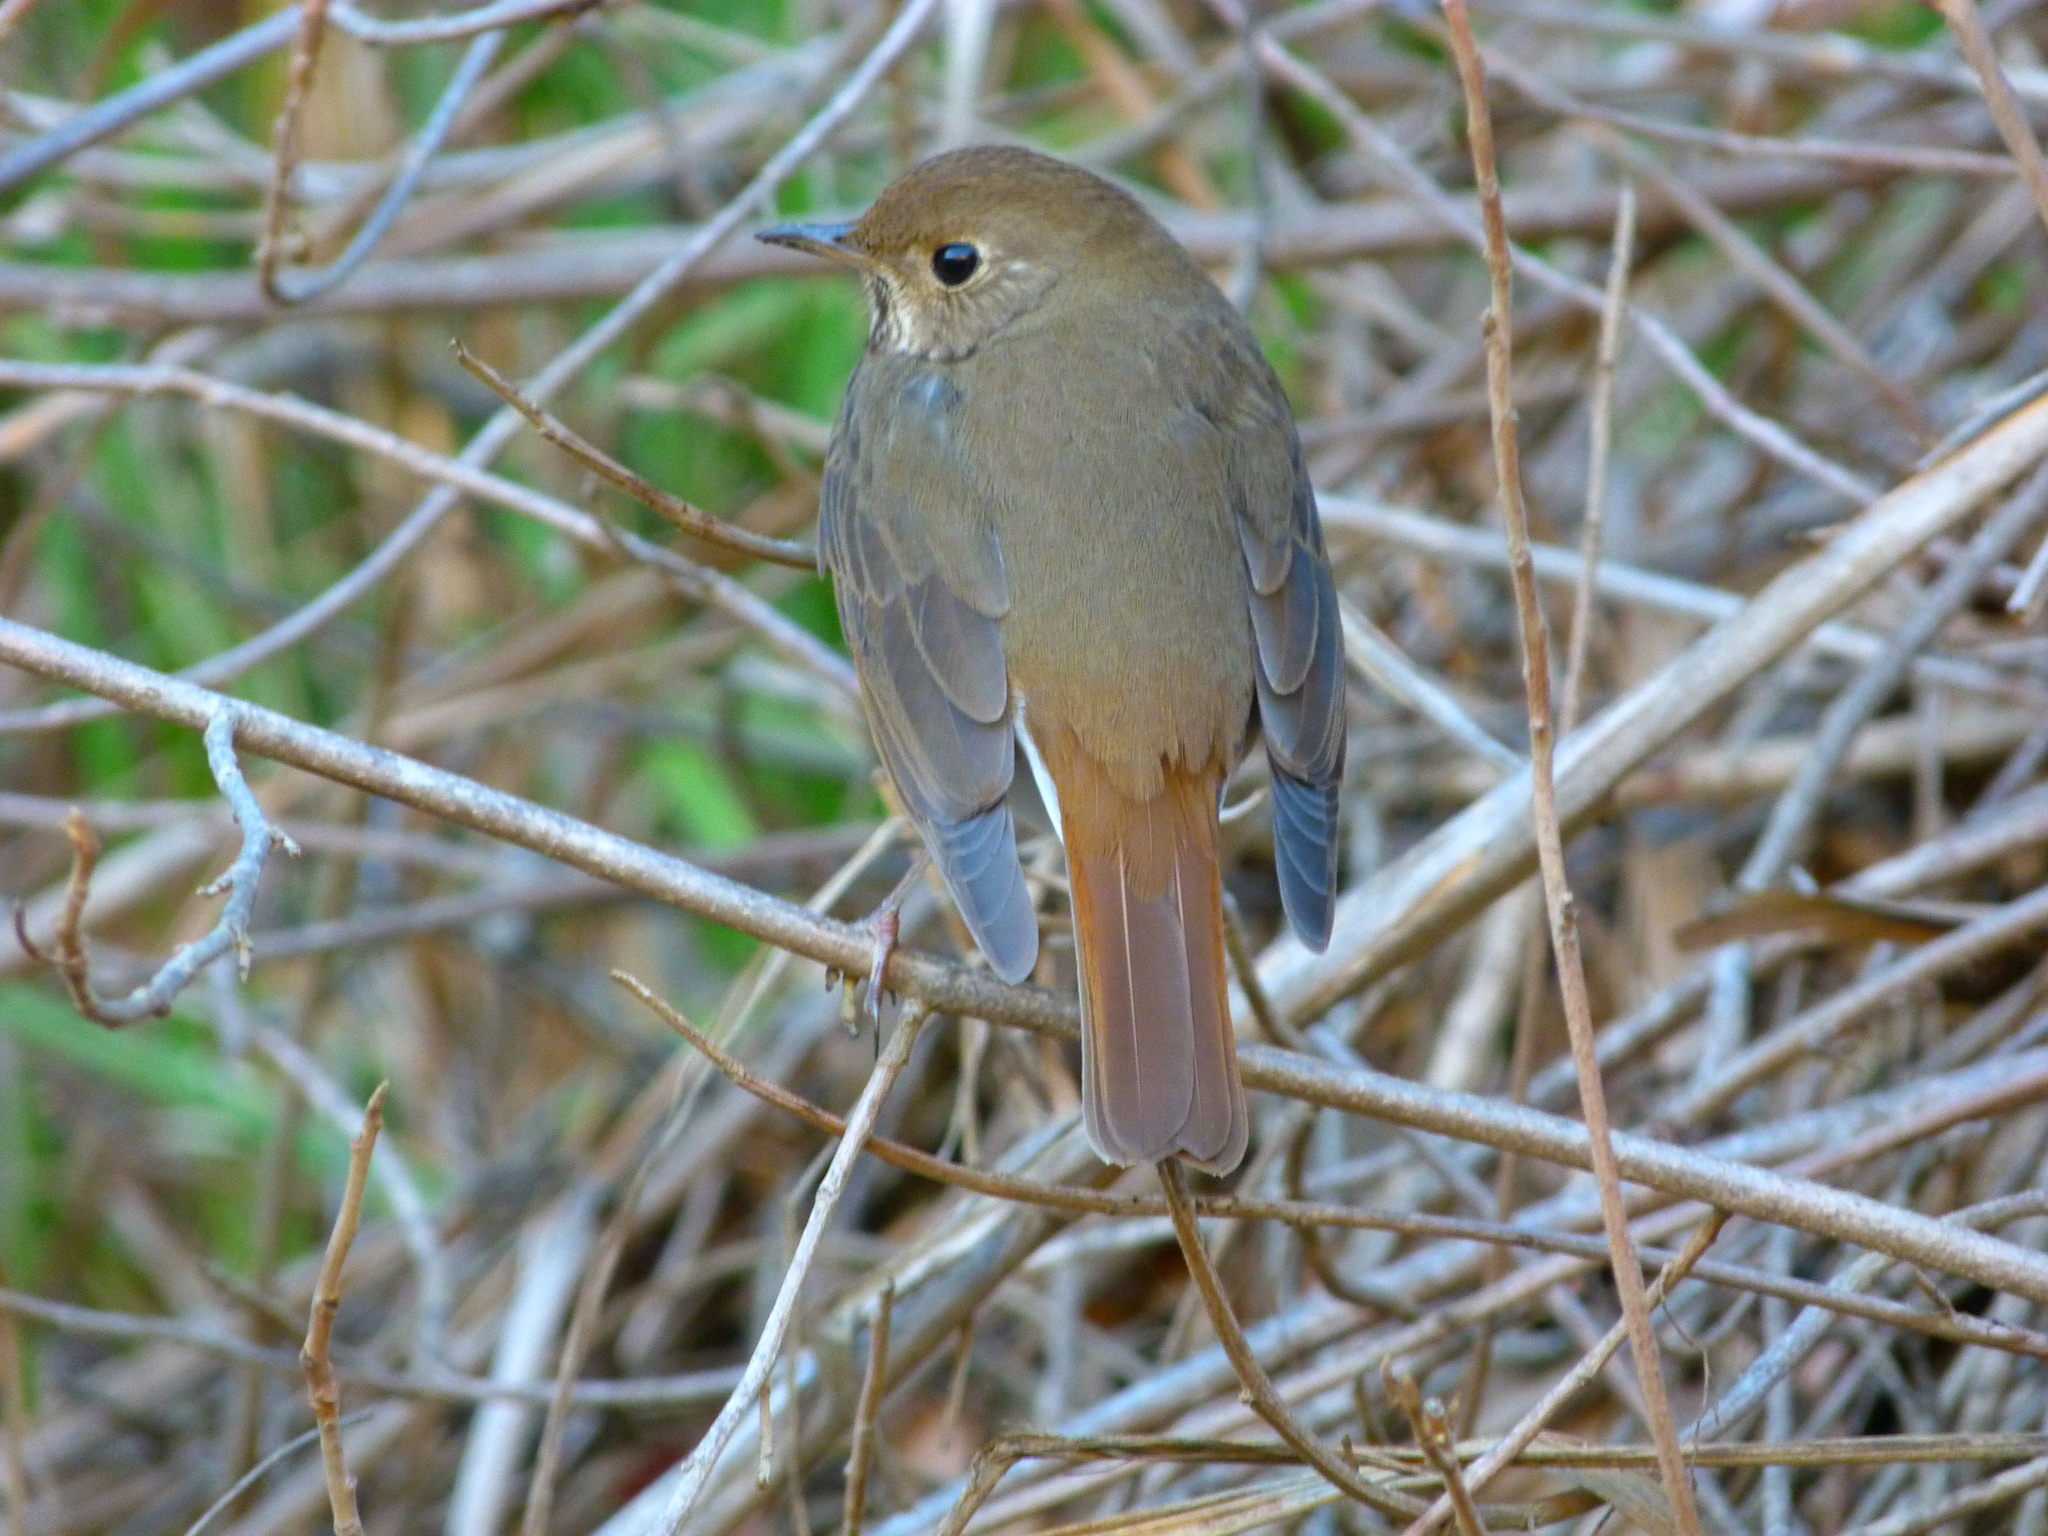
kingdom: Animalia
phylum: Chordata
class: Aves
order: Passeriformes
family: Turdidae
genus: Catharus
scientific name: Catharus guttatus
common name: Hermit thrush
